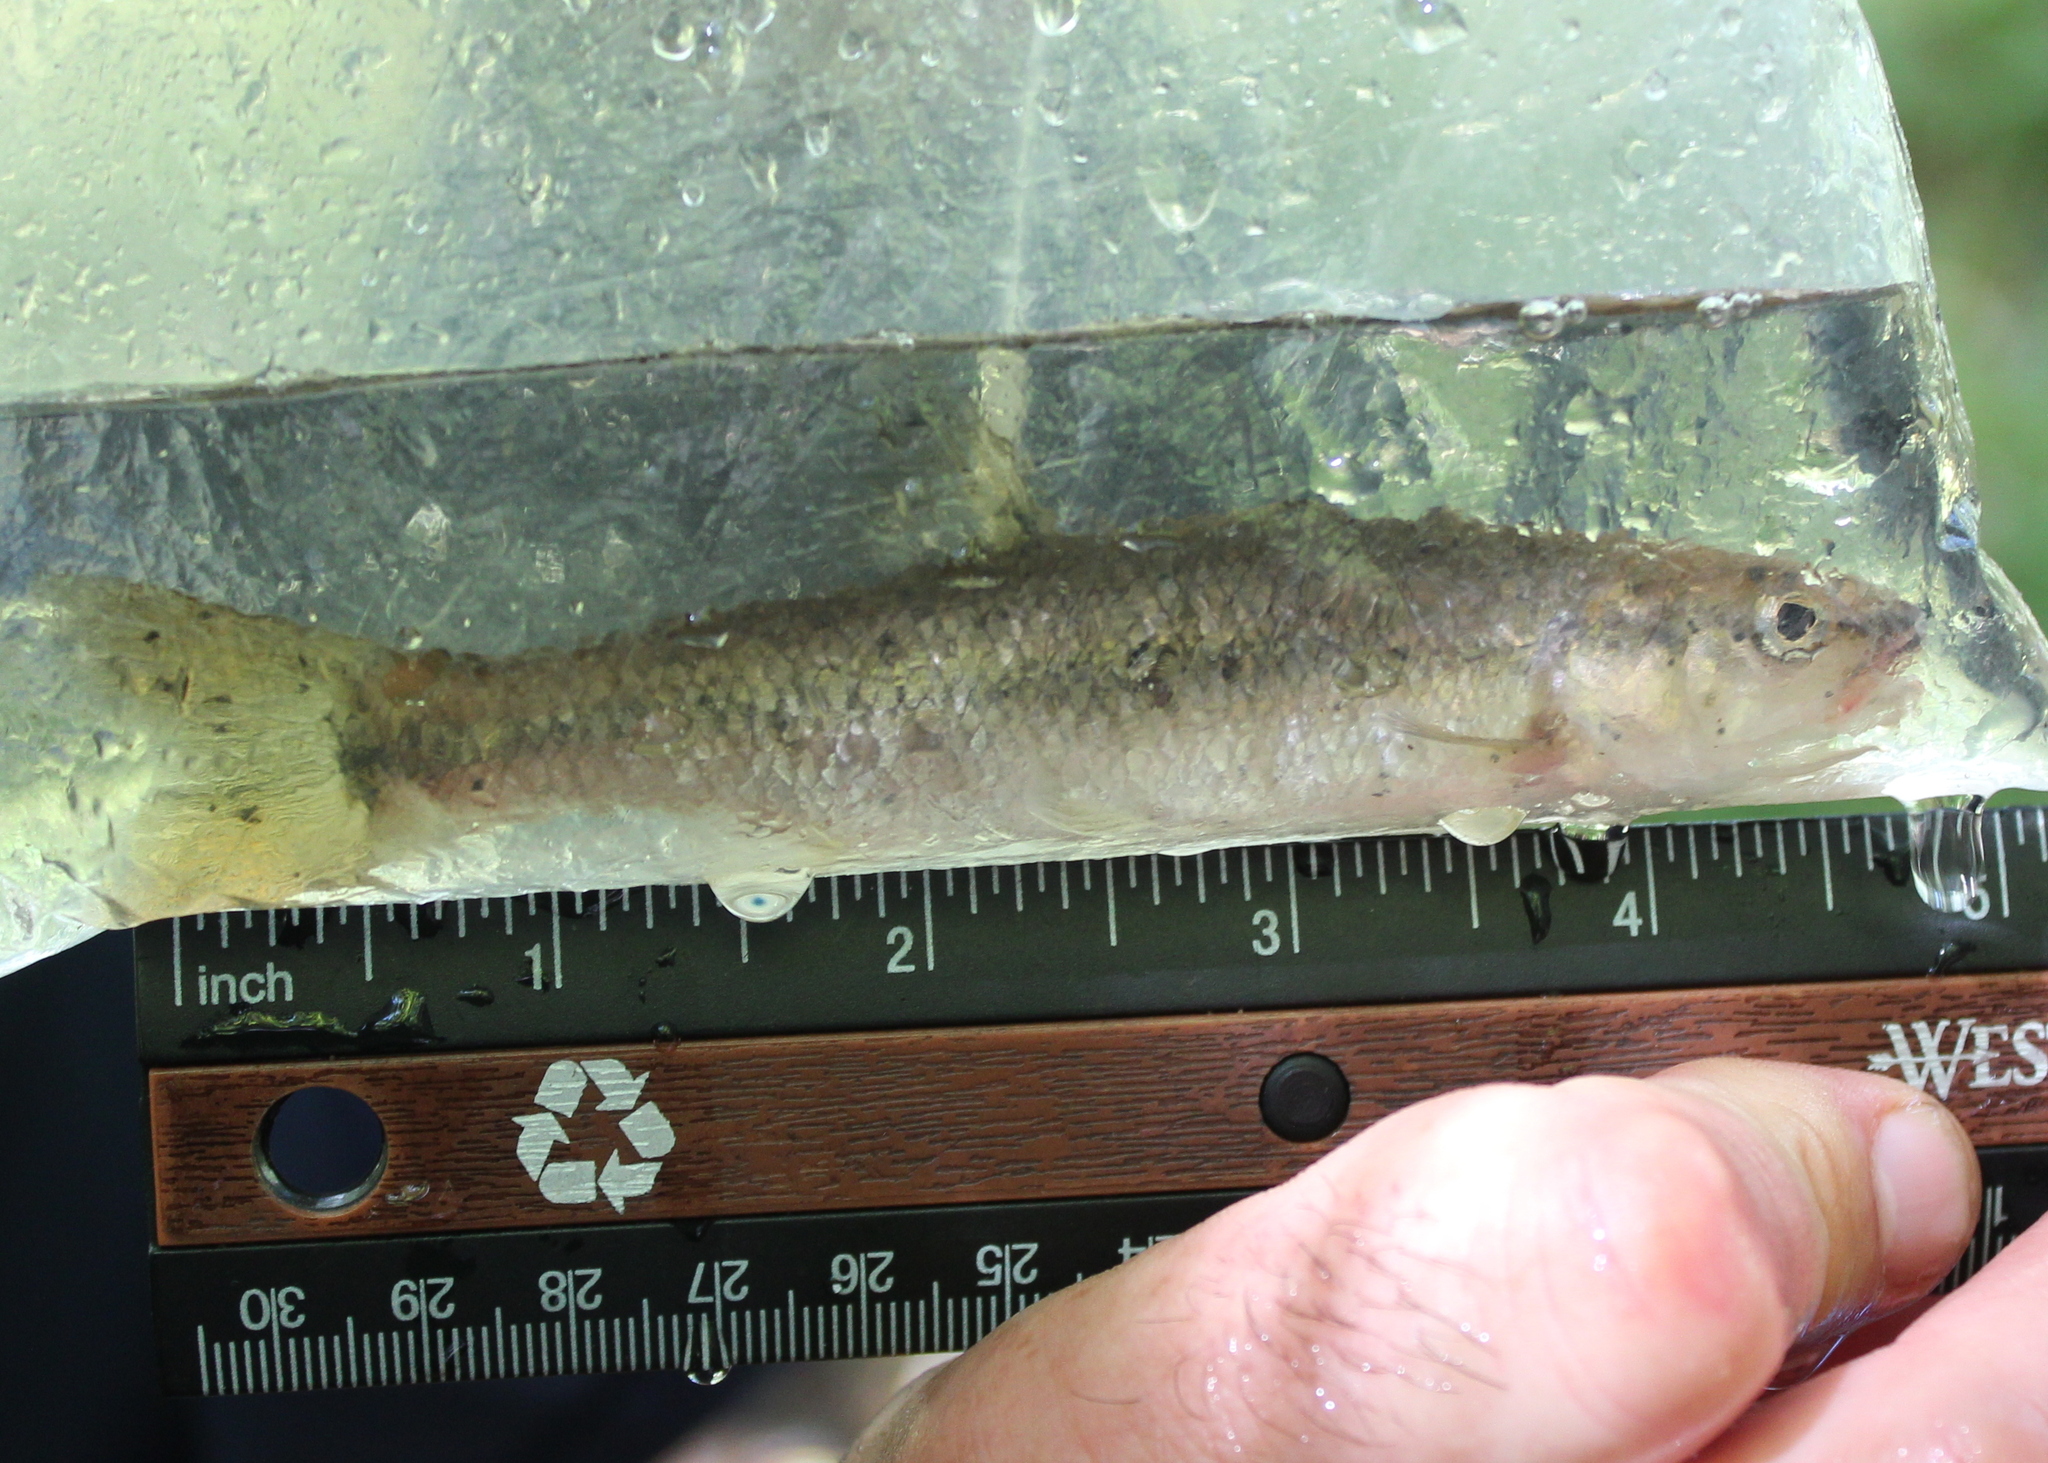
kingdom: Animalia
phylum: Chordata
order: Cypriniformes
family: Cyprinidae
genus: Semotilus
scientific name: Semotilus atromaculatus
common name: Creek chub
